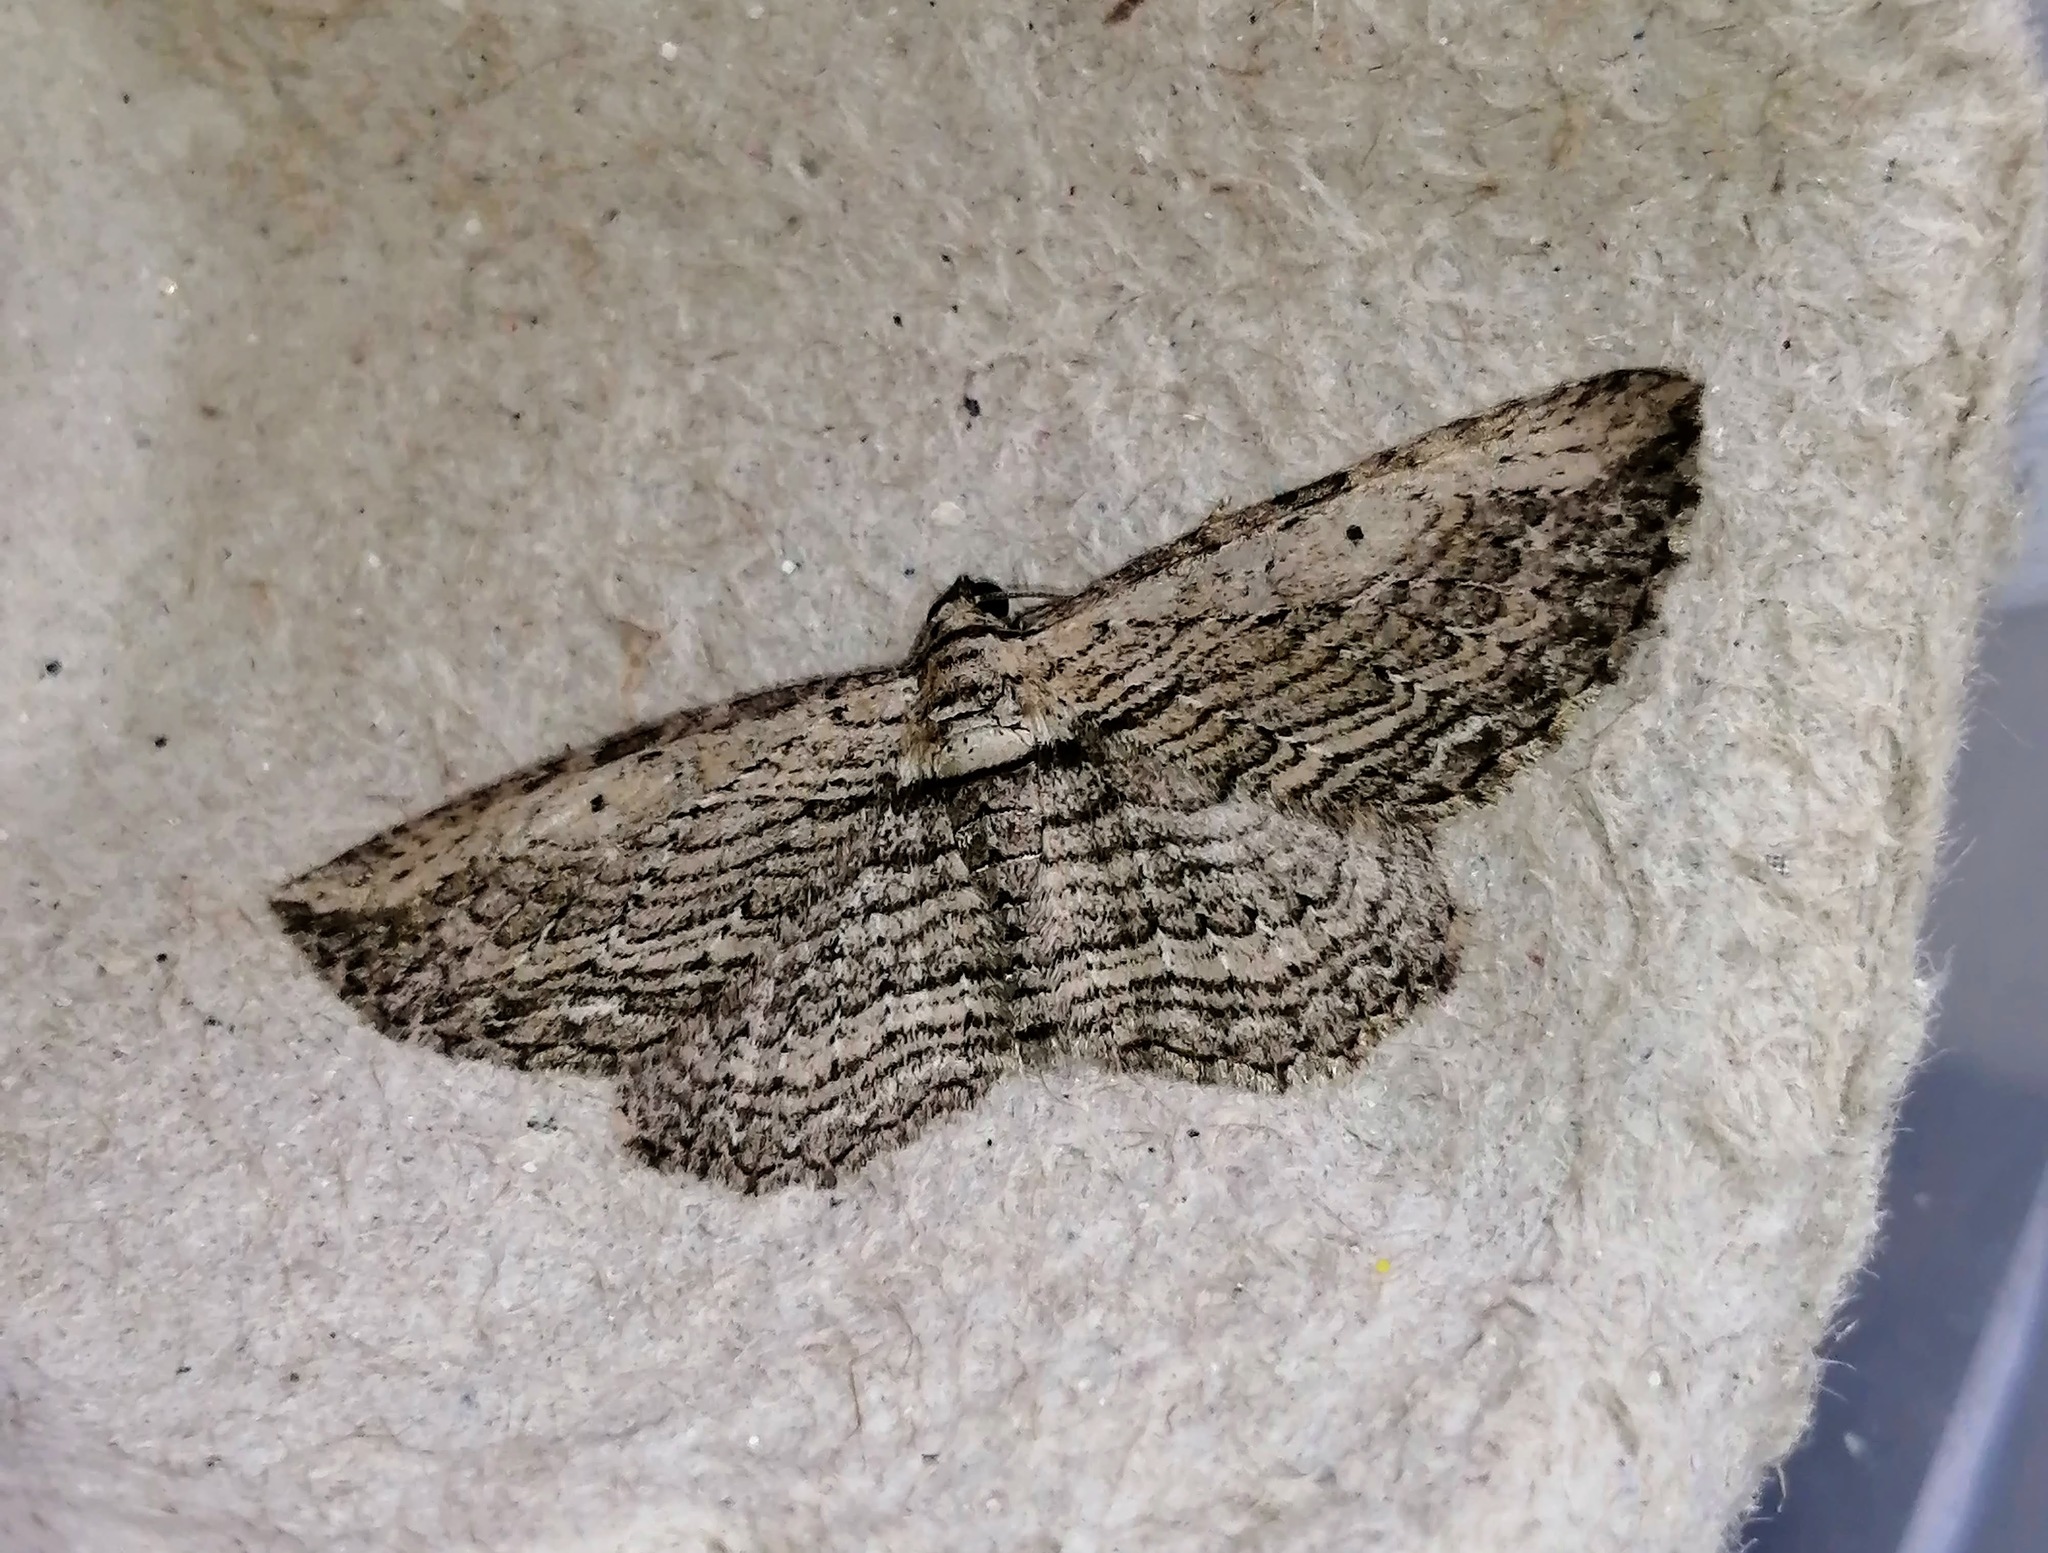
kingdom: Animalia
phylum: Arthropoda
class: Insecta
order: Lepidoptera
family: Geometridae
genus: Horisme
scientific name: Horisme intestinata
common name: Brown bark carpet
